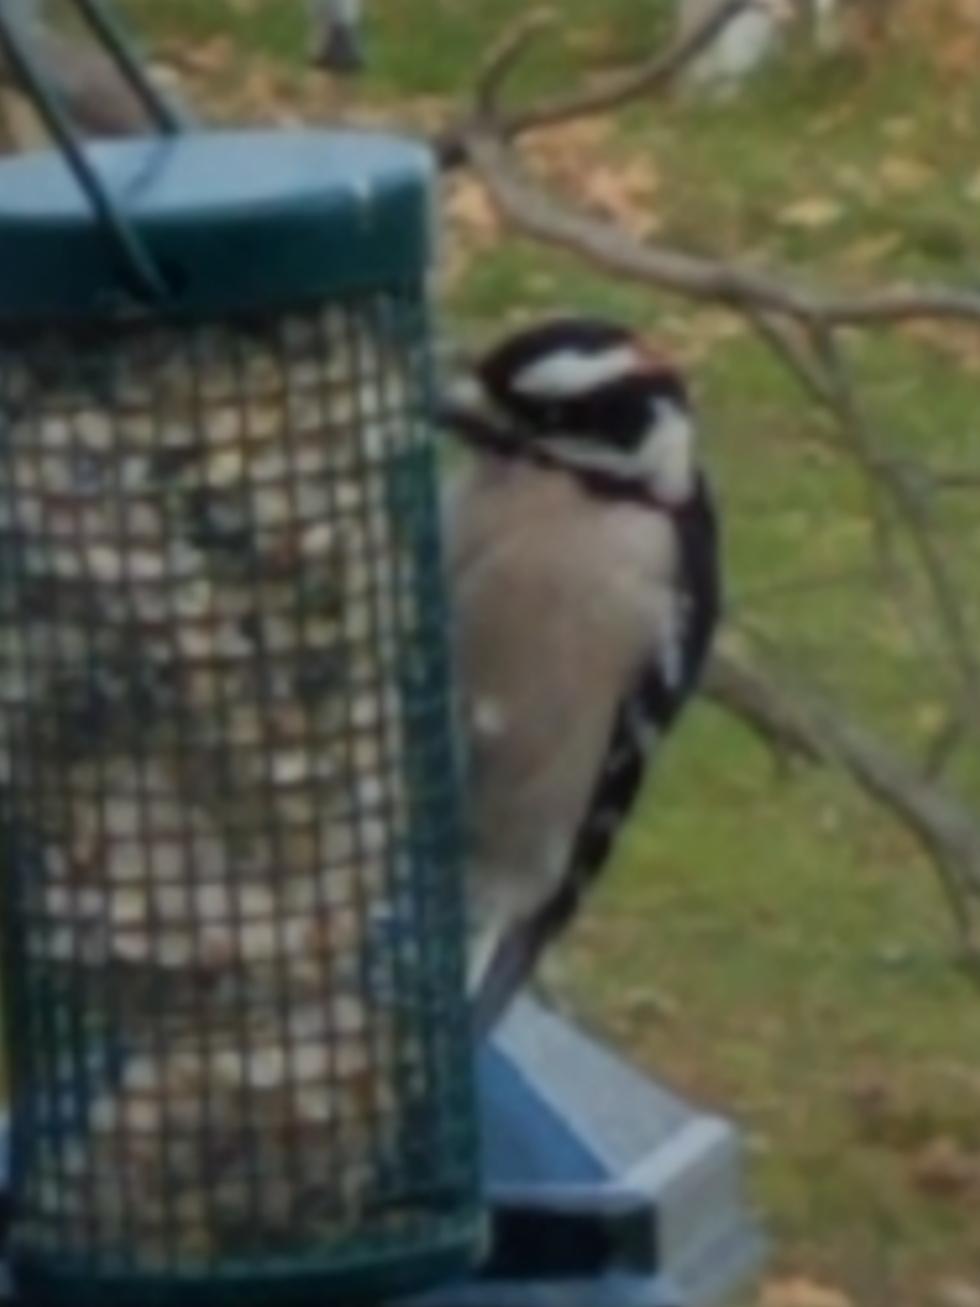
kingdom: Animalia
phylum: Chordata
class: Aves
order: Piciformes
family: Picidae
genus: Dryobates
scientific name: Dryobates pubescens
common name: Downy woodpecker
